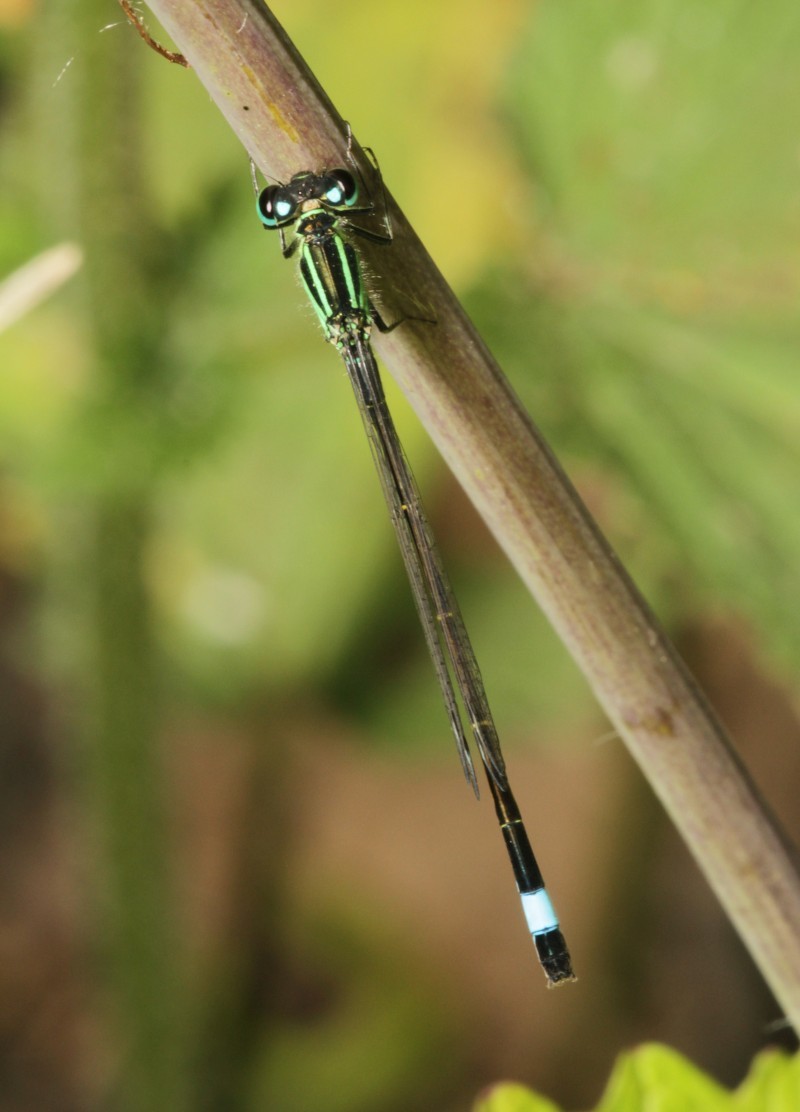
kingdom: Animalia
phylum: Arthropoda
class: Insecta
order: Odonata
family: Coenagrionidae
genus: Ischnura
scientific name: Ischnura elegans
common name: Blue-tailed damselfly
